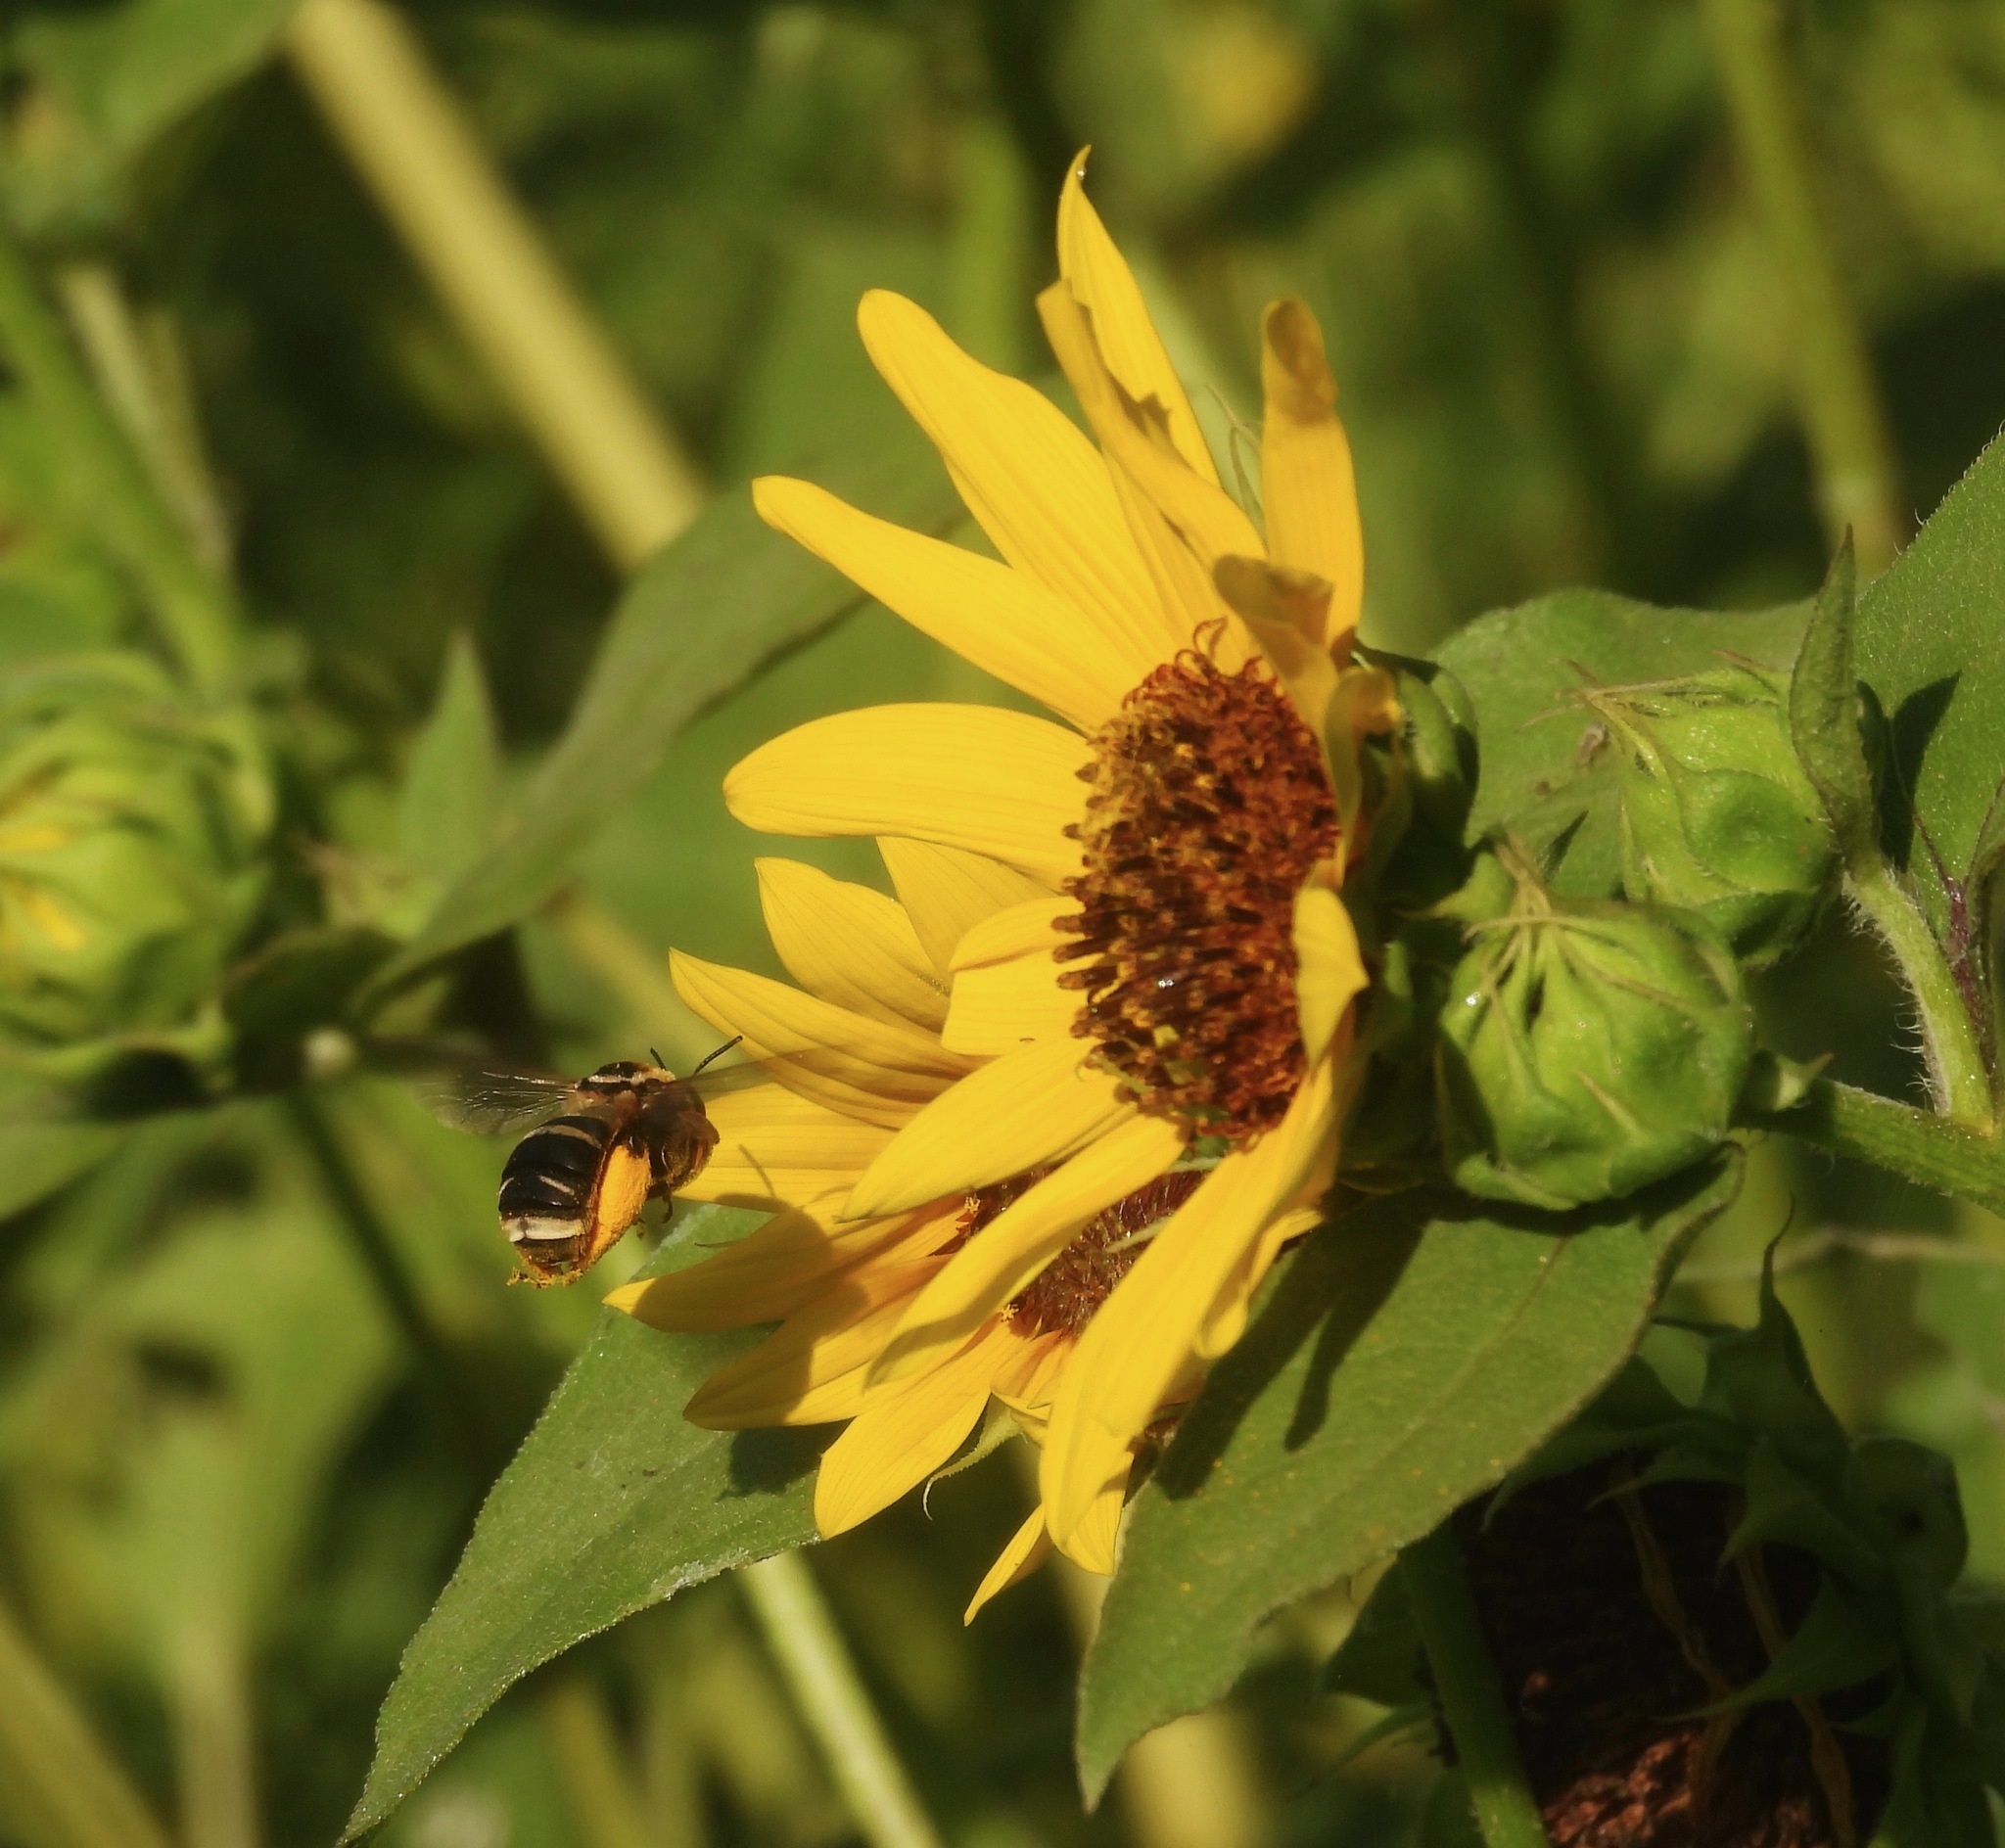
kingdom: Animalia
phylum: Arthropoda
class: Insecta
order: Hymenoptera
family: Apidae
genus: Svastra
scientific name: Svastra obliqua
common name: Oblique longhorn
